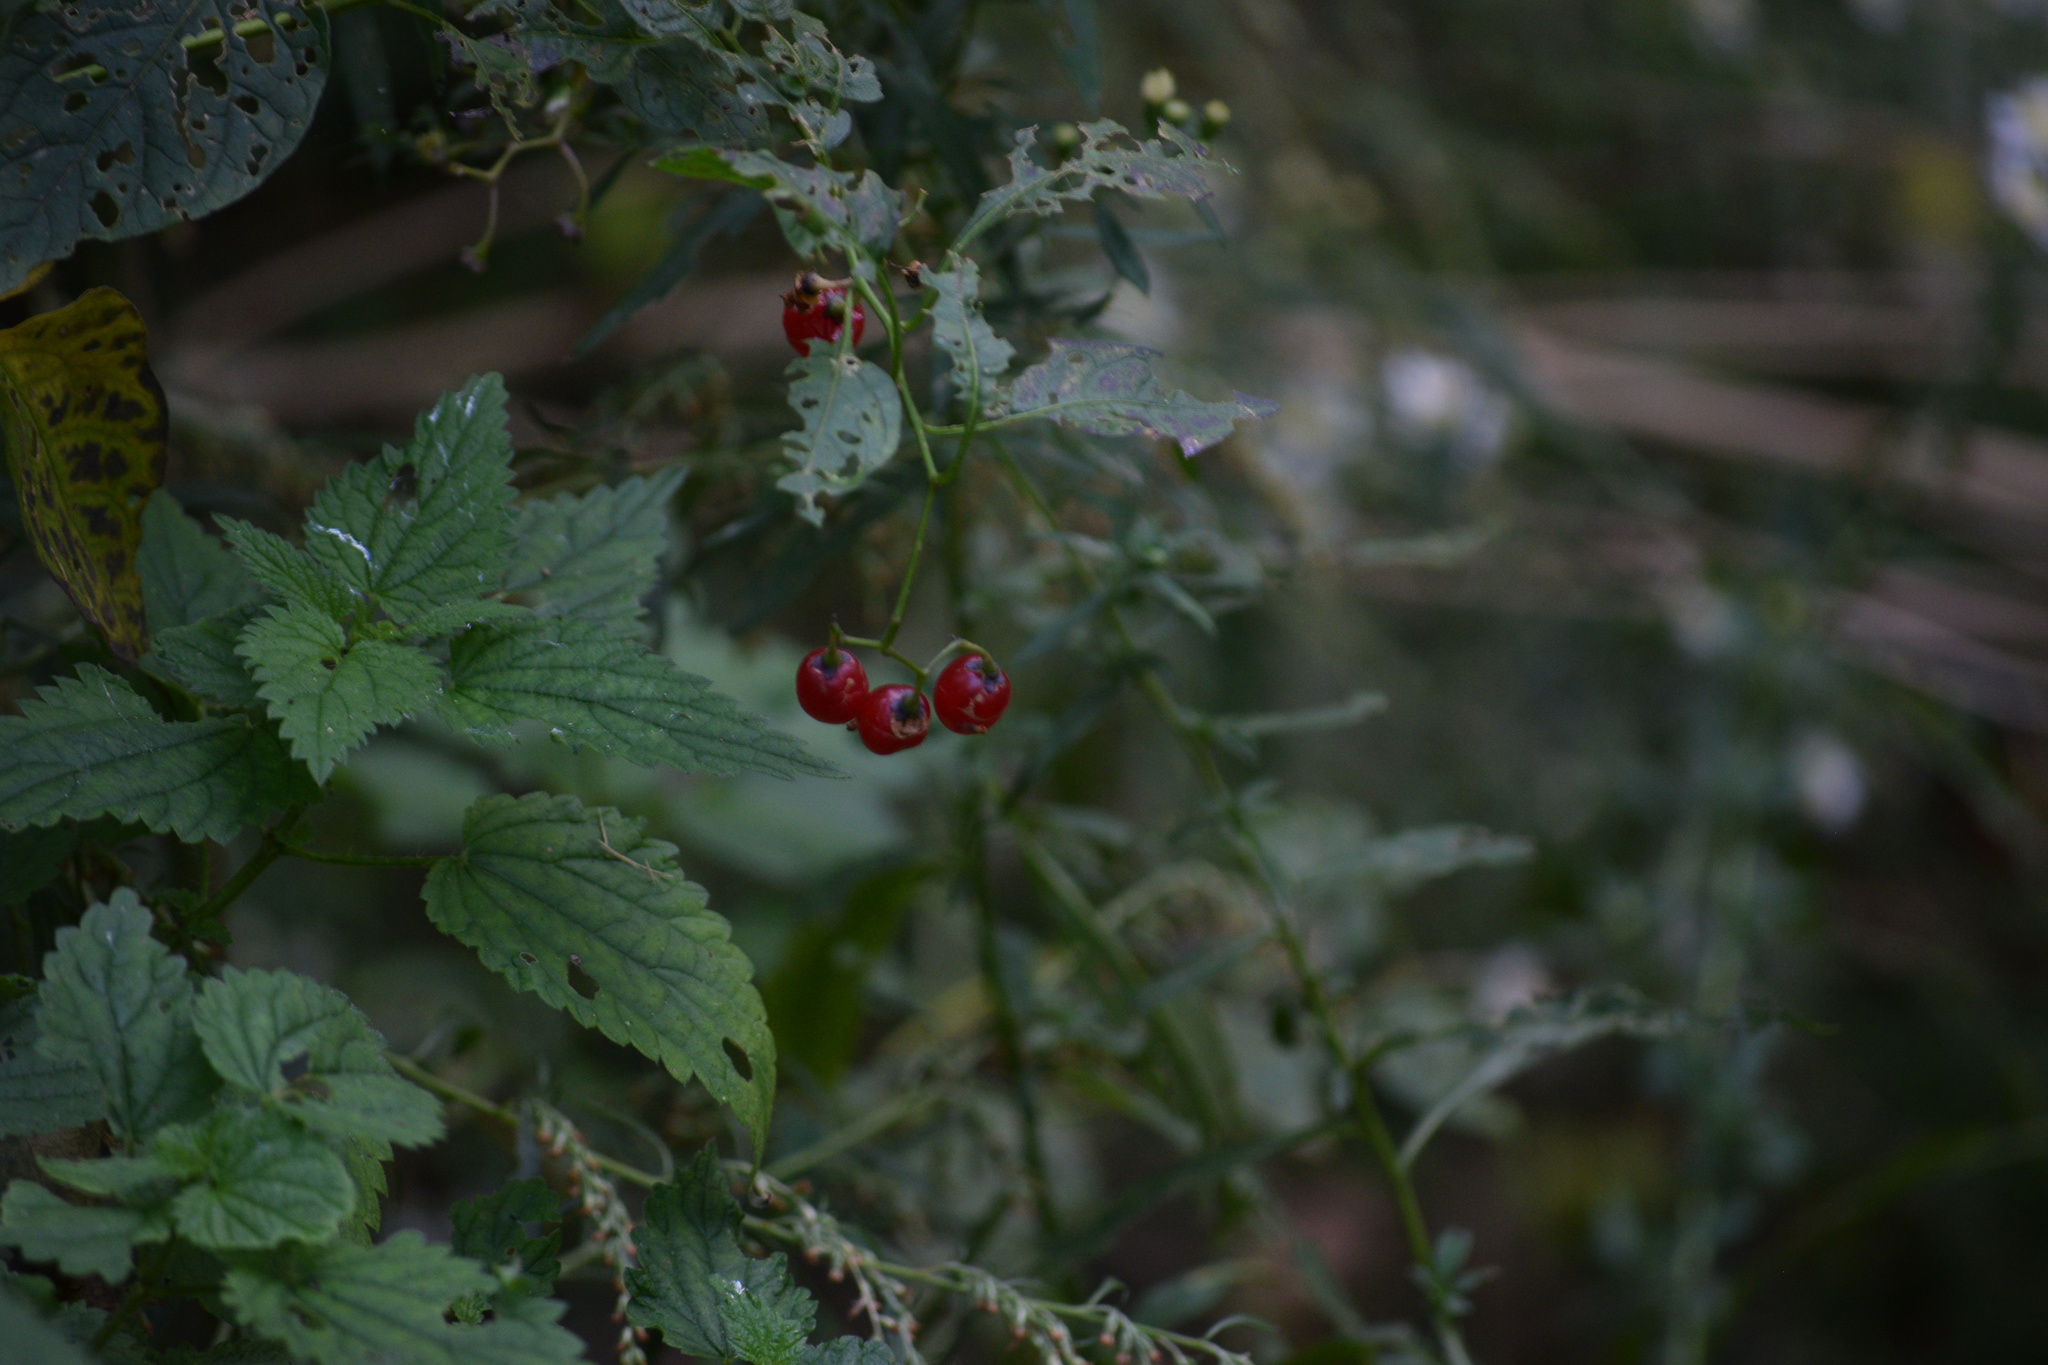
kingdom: Plantae
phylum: Tracheophyta
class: Magnoliopsida
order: Solanales
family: Solanaceae
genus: Solanum
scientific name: Solanum dulcamara
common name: Climbing nightshade
